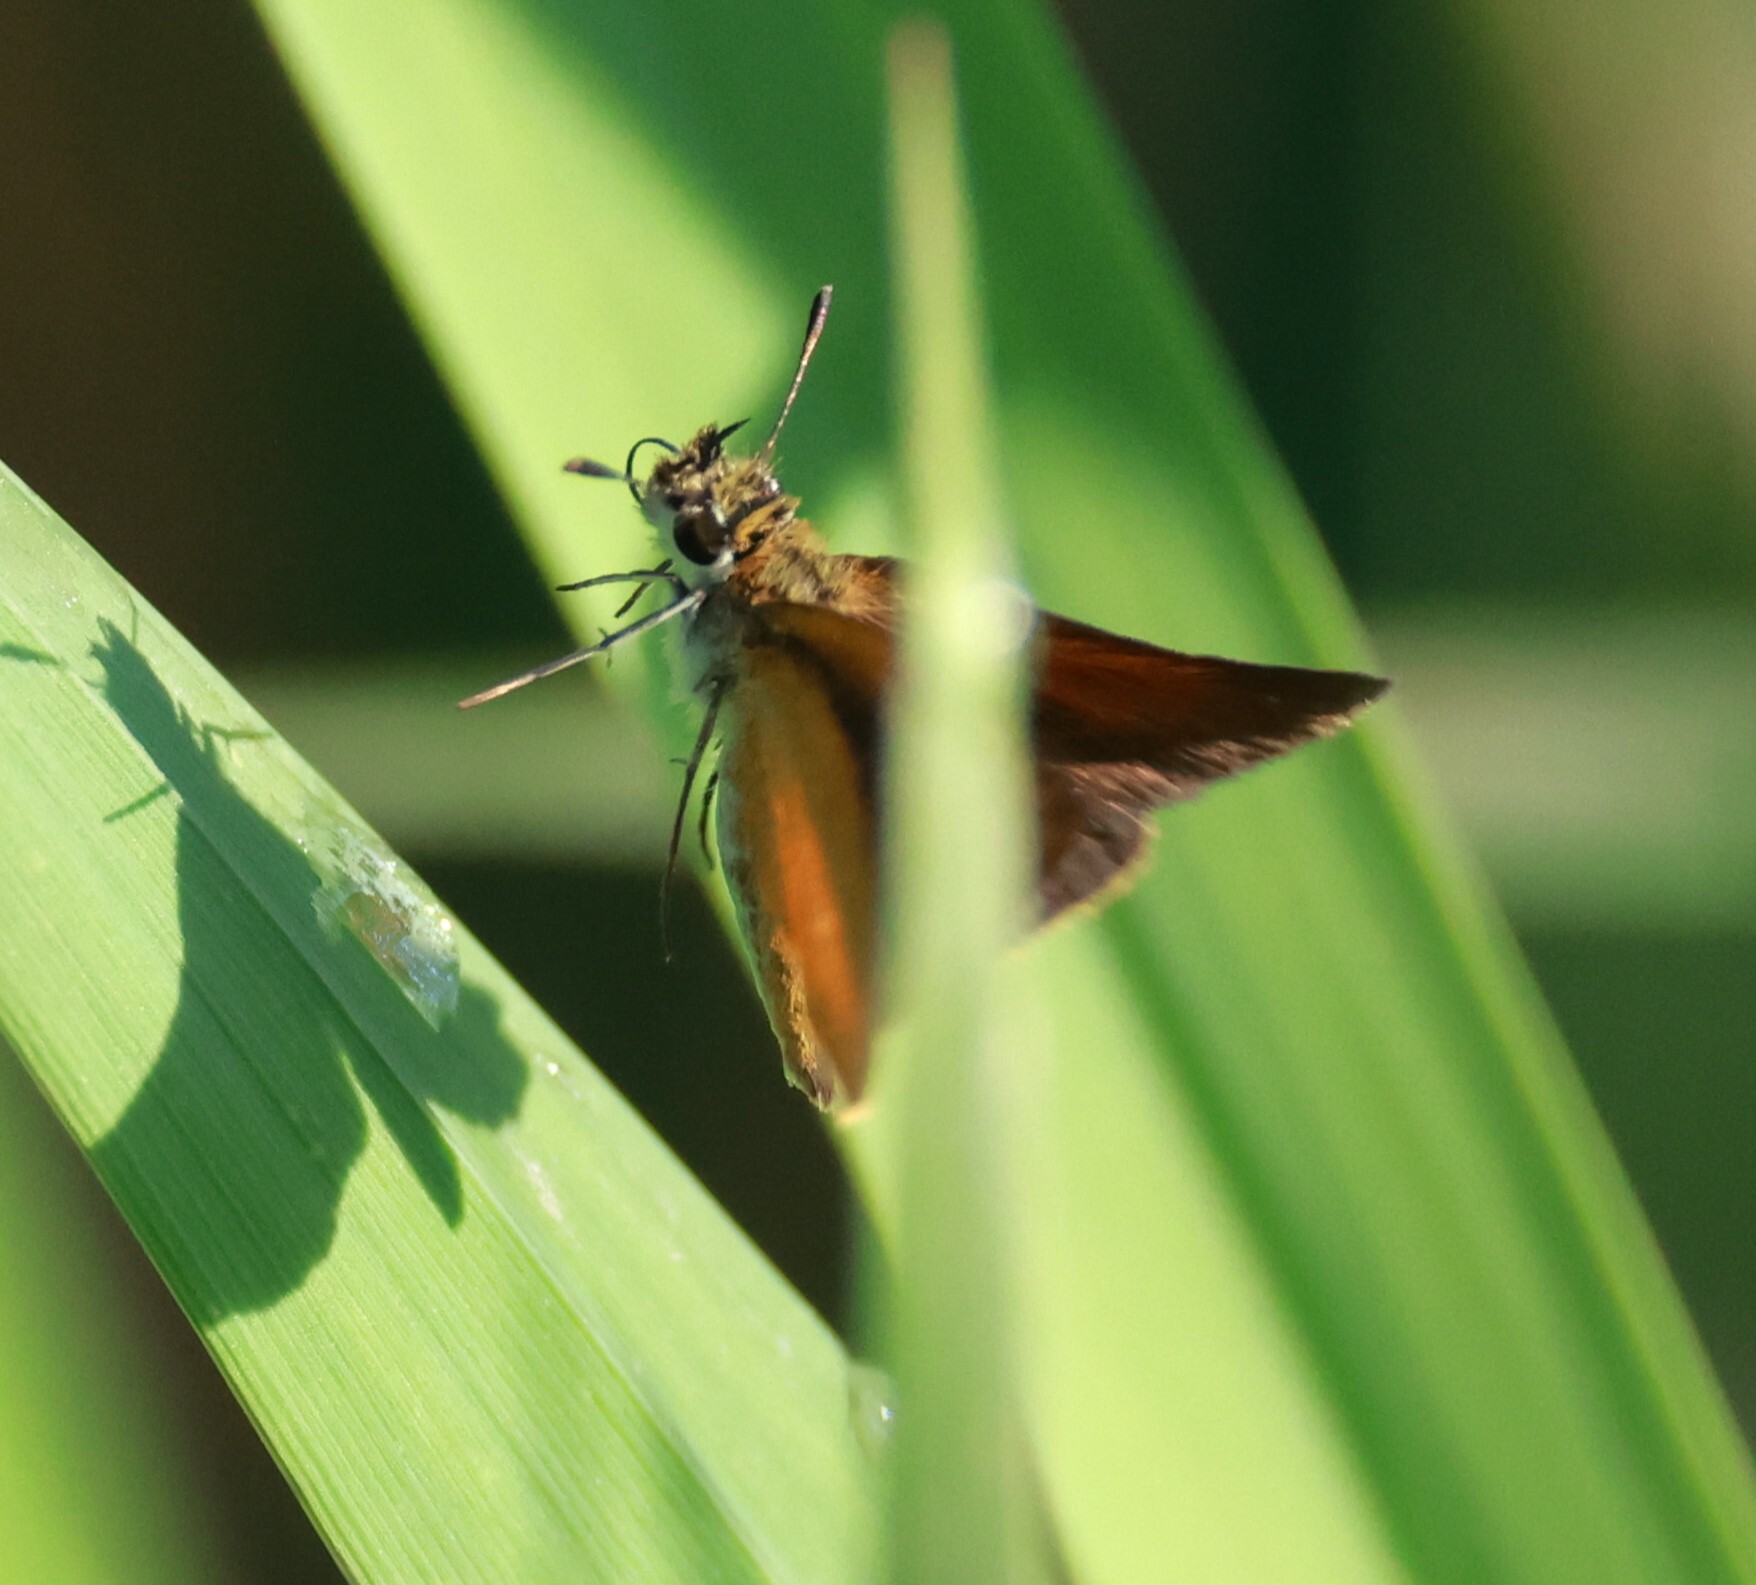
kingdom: Animalia
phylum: Arthropoda
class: Insecta
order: Lepidoptera
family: Hesperiidae
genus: Ancyloxypha
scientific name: Ancyloxypha numitor
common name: Least skipper
